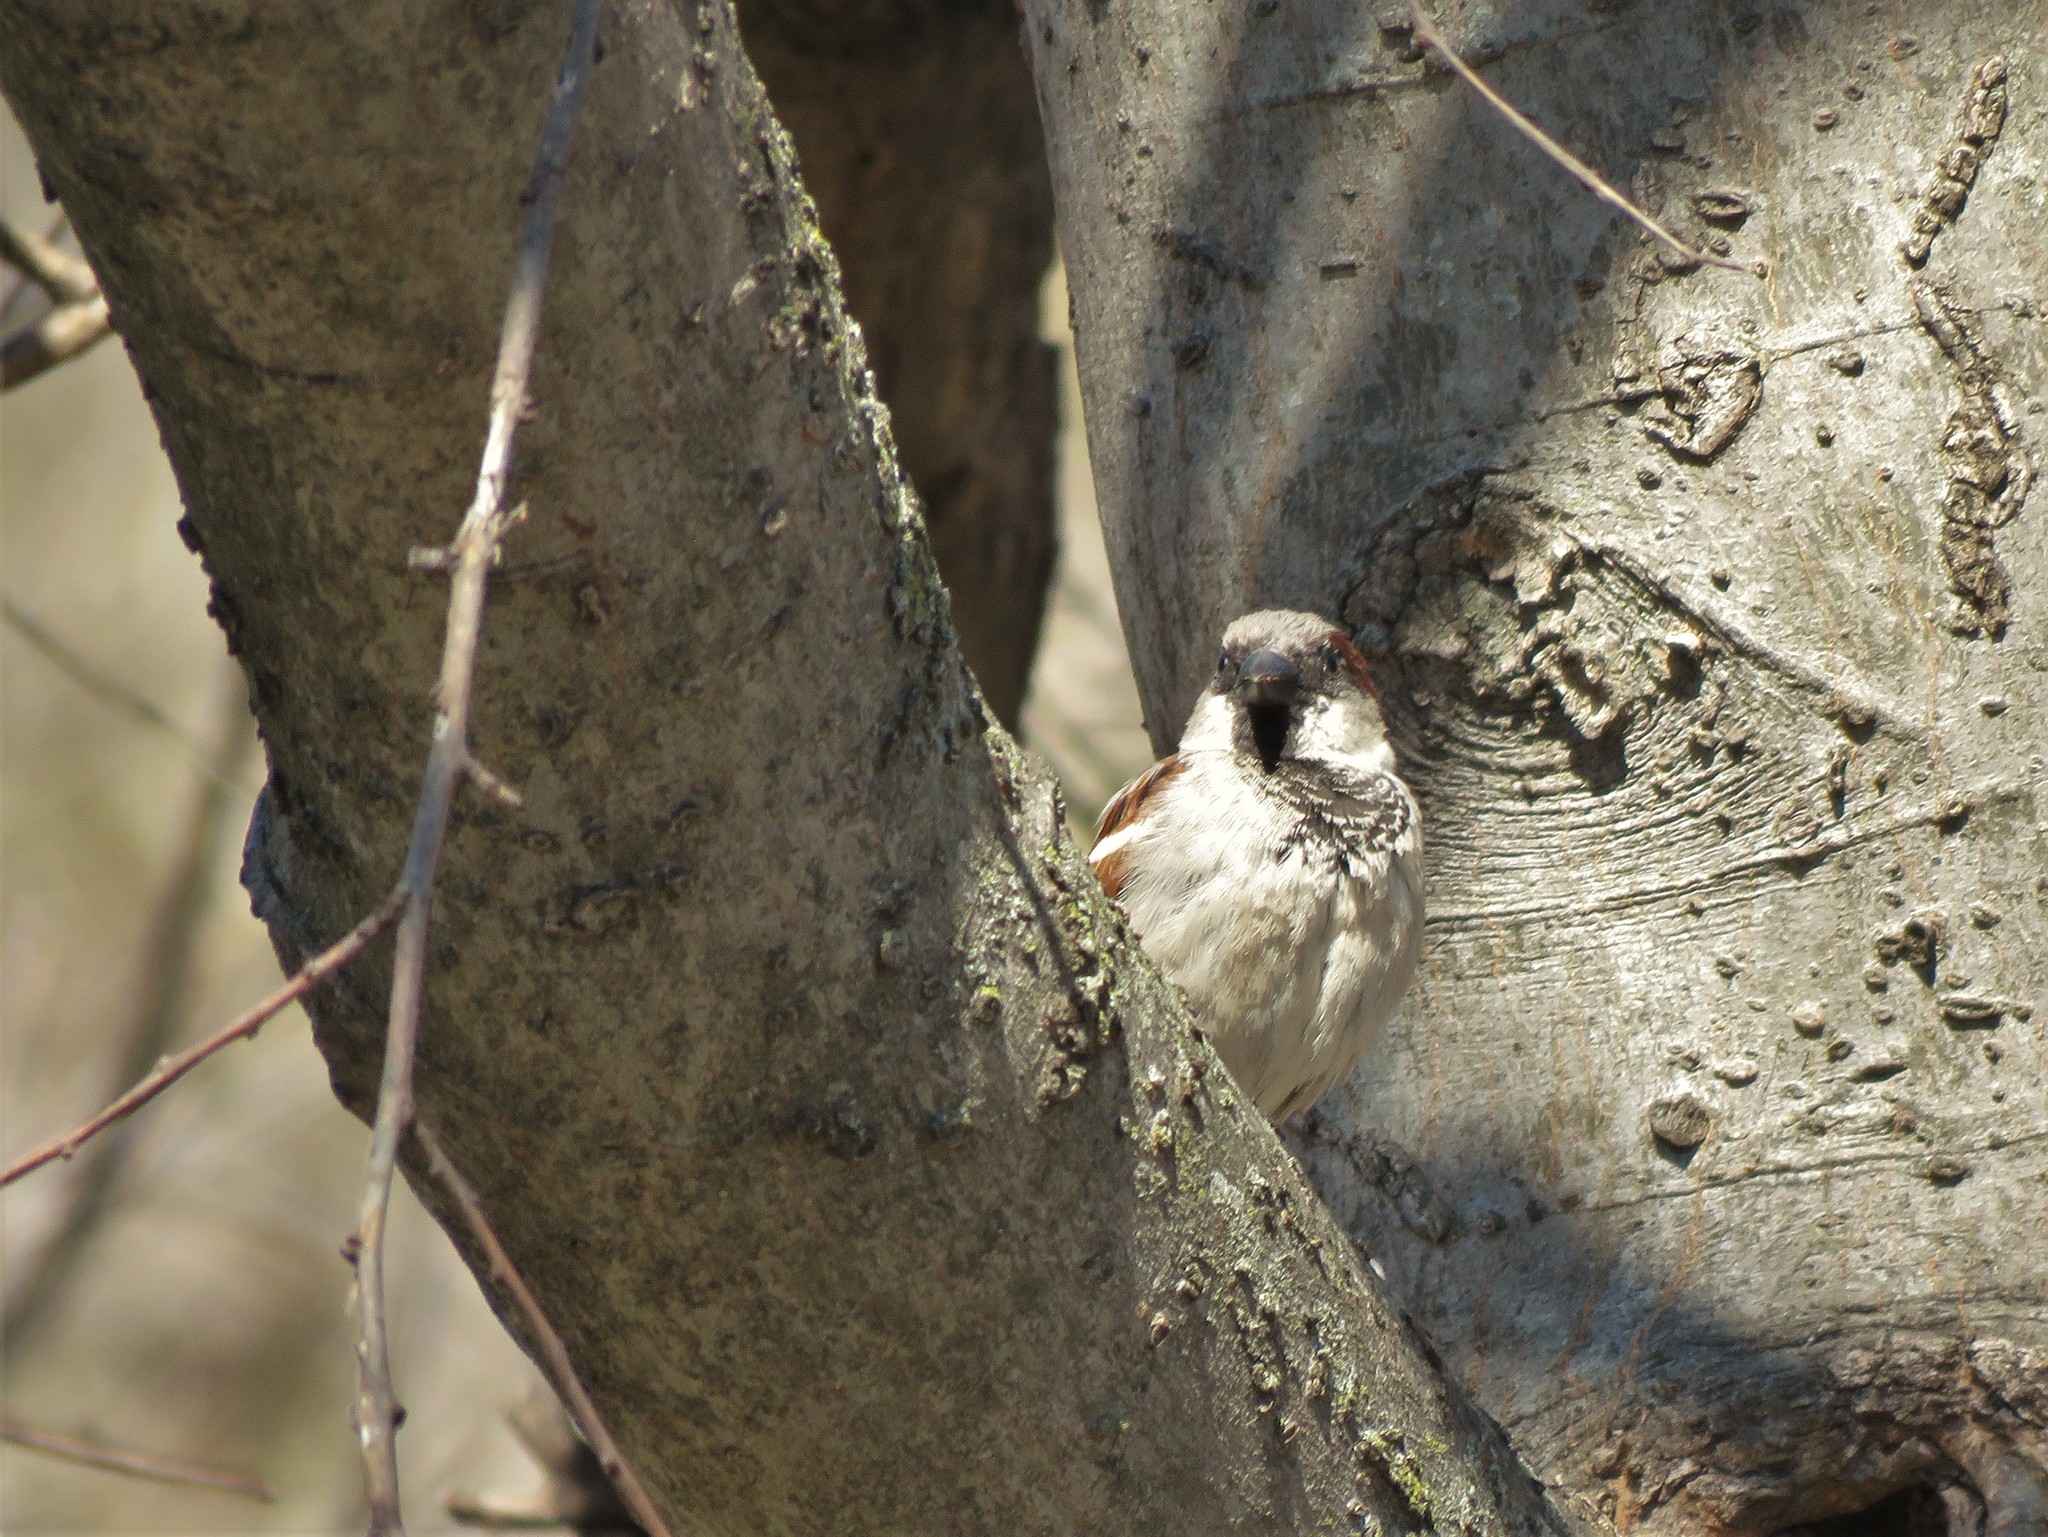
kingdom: Animalia
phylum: Chordata
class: Aves
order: Passeriformes
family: Passeridae
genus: Passer
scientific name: Passer domesticus
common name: House sparrow
